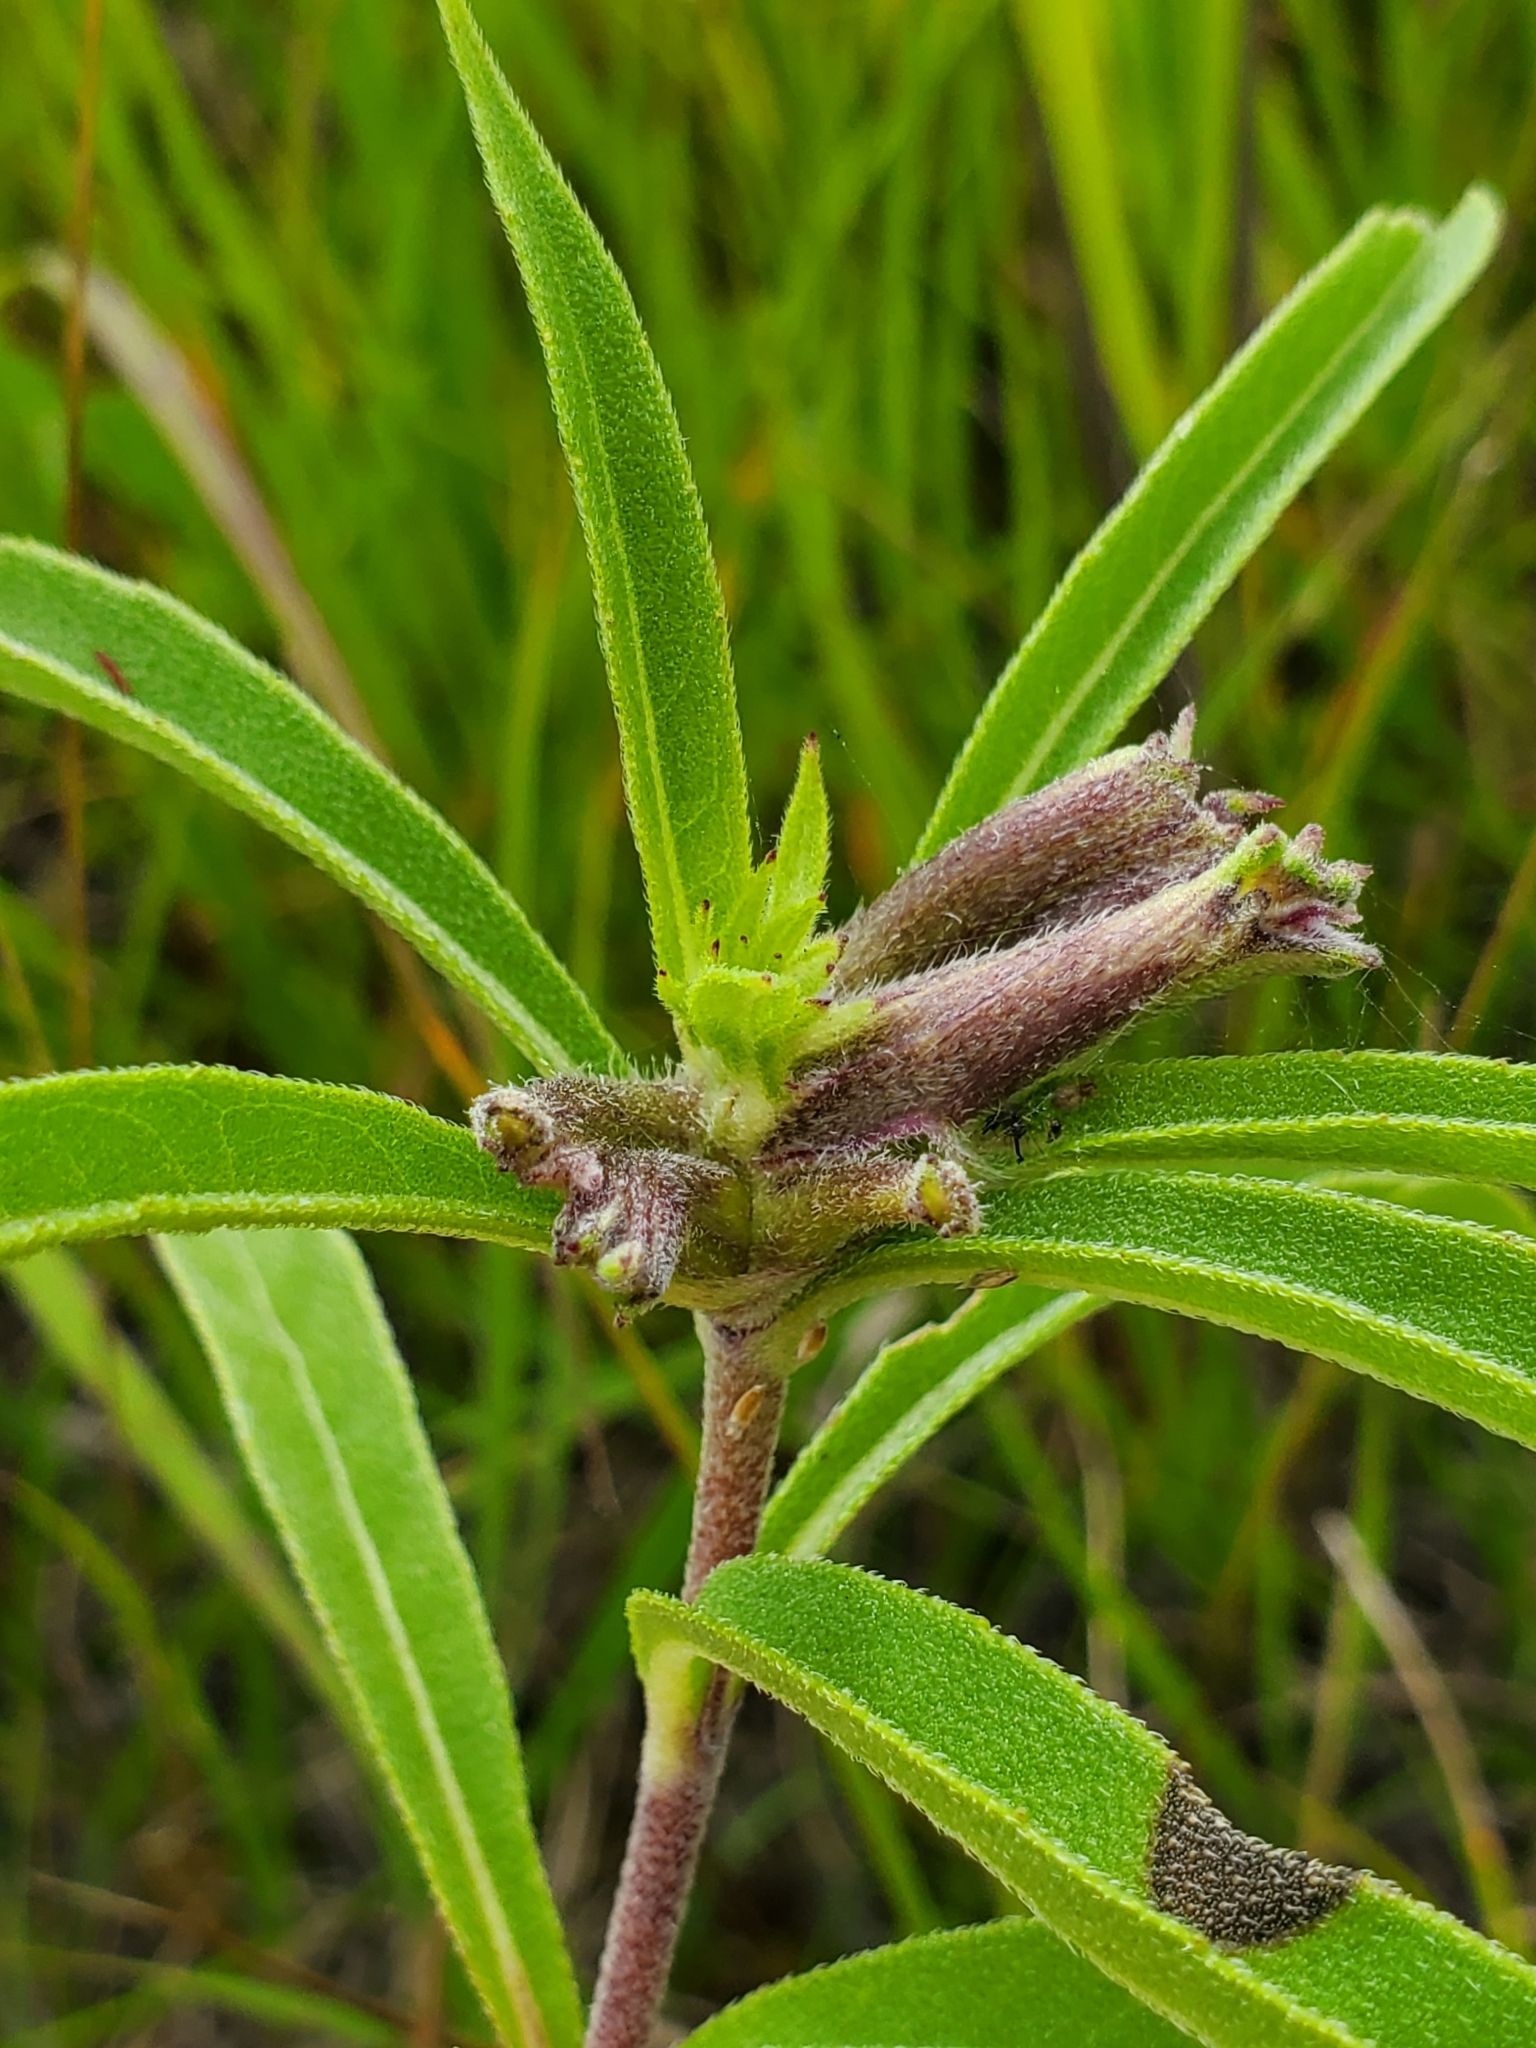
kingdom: Animalia
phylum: Arthropoda
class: Insecta
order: Diptera
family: Cecidomyiidae
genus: Olpodiplosis
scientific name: Olpodiplosis helianthi
